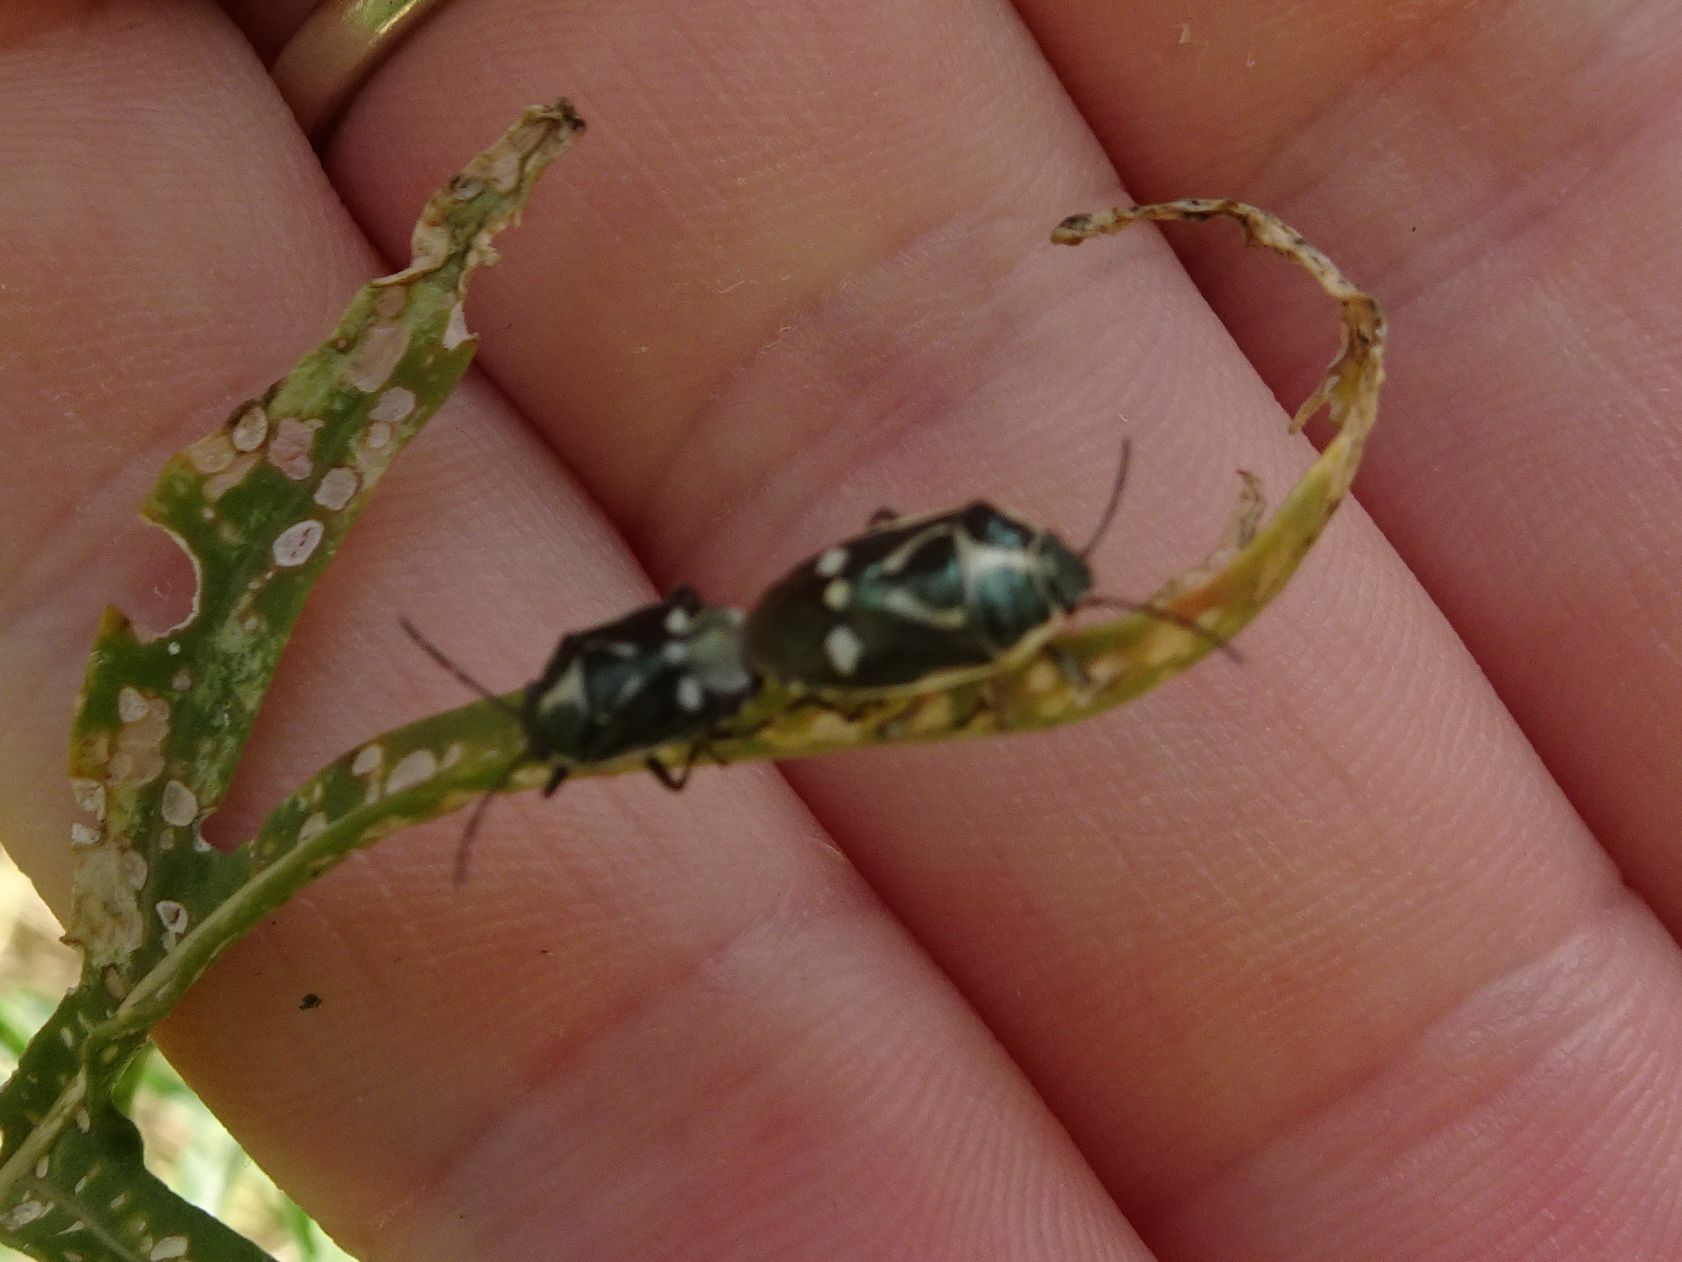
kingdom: Animalia
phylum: Arthropoda
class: Insecta
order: Hemiptera
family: Pentatomidae
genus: Eurydema
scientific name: Eurydema oleracea
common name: Cabbage bug
